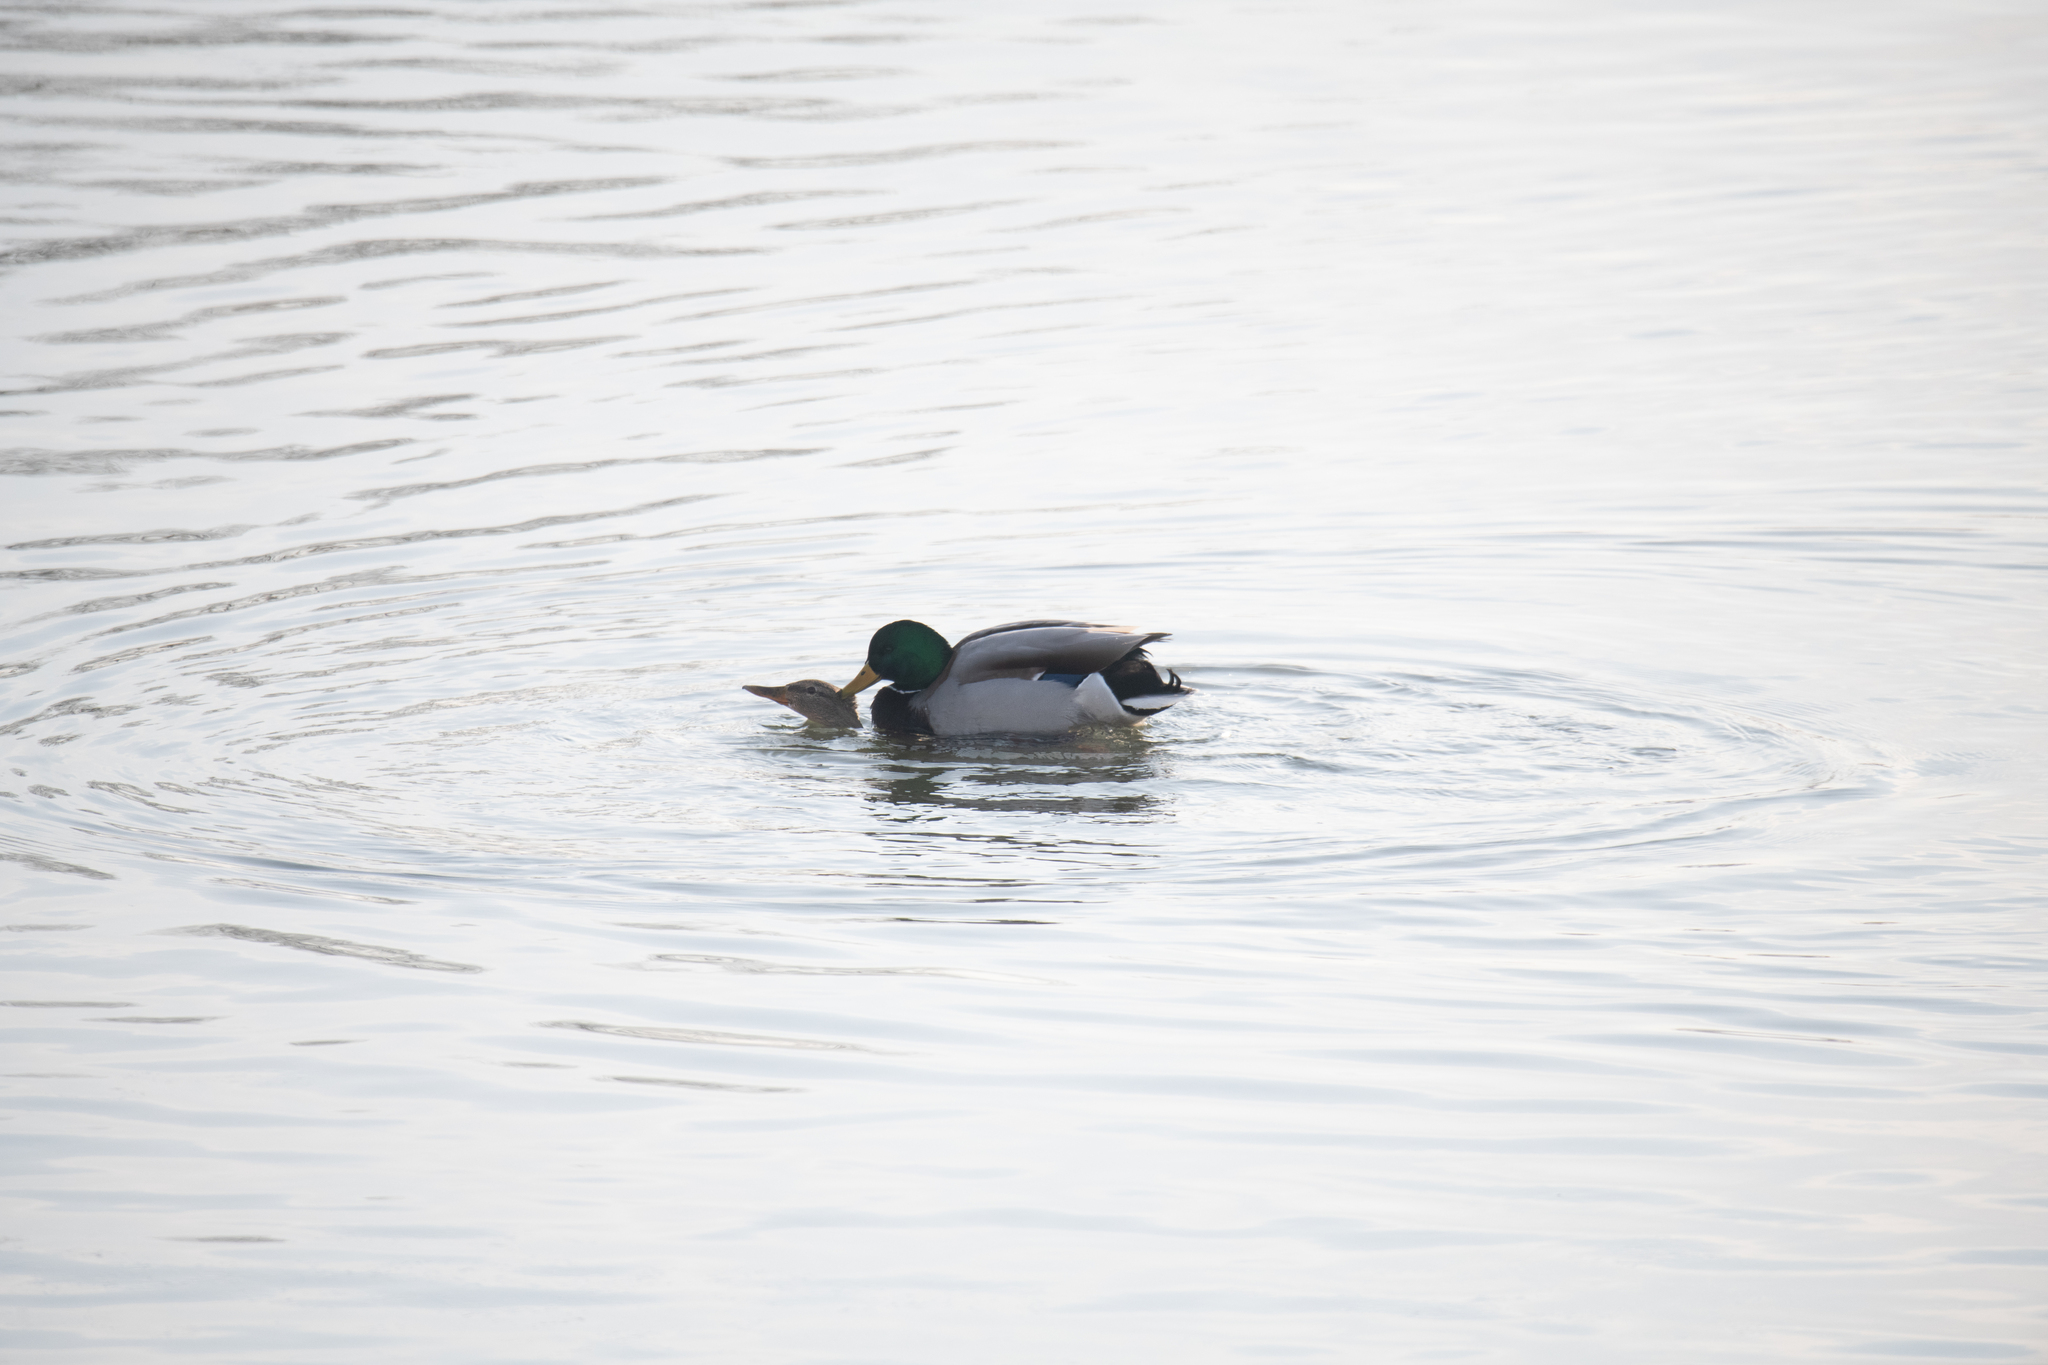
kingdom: Animalia
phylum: Chordata
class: Aves
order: Anseriformes
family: Anatidae
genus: Anas
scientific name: Anas platyrhynchos
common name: Mallard
